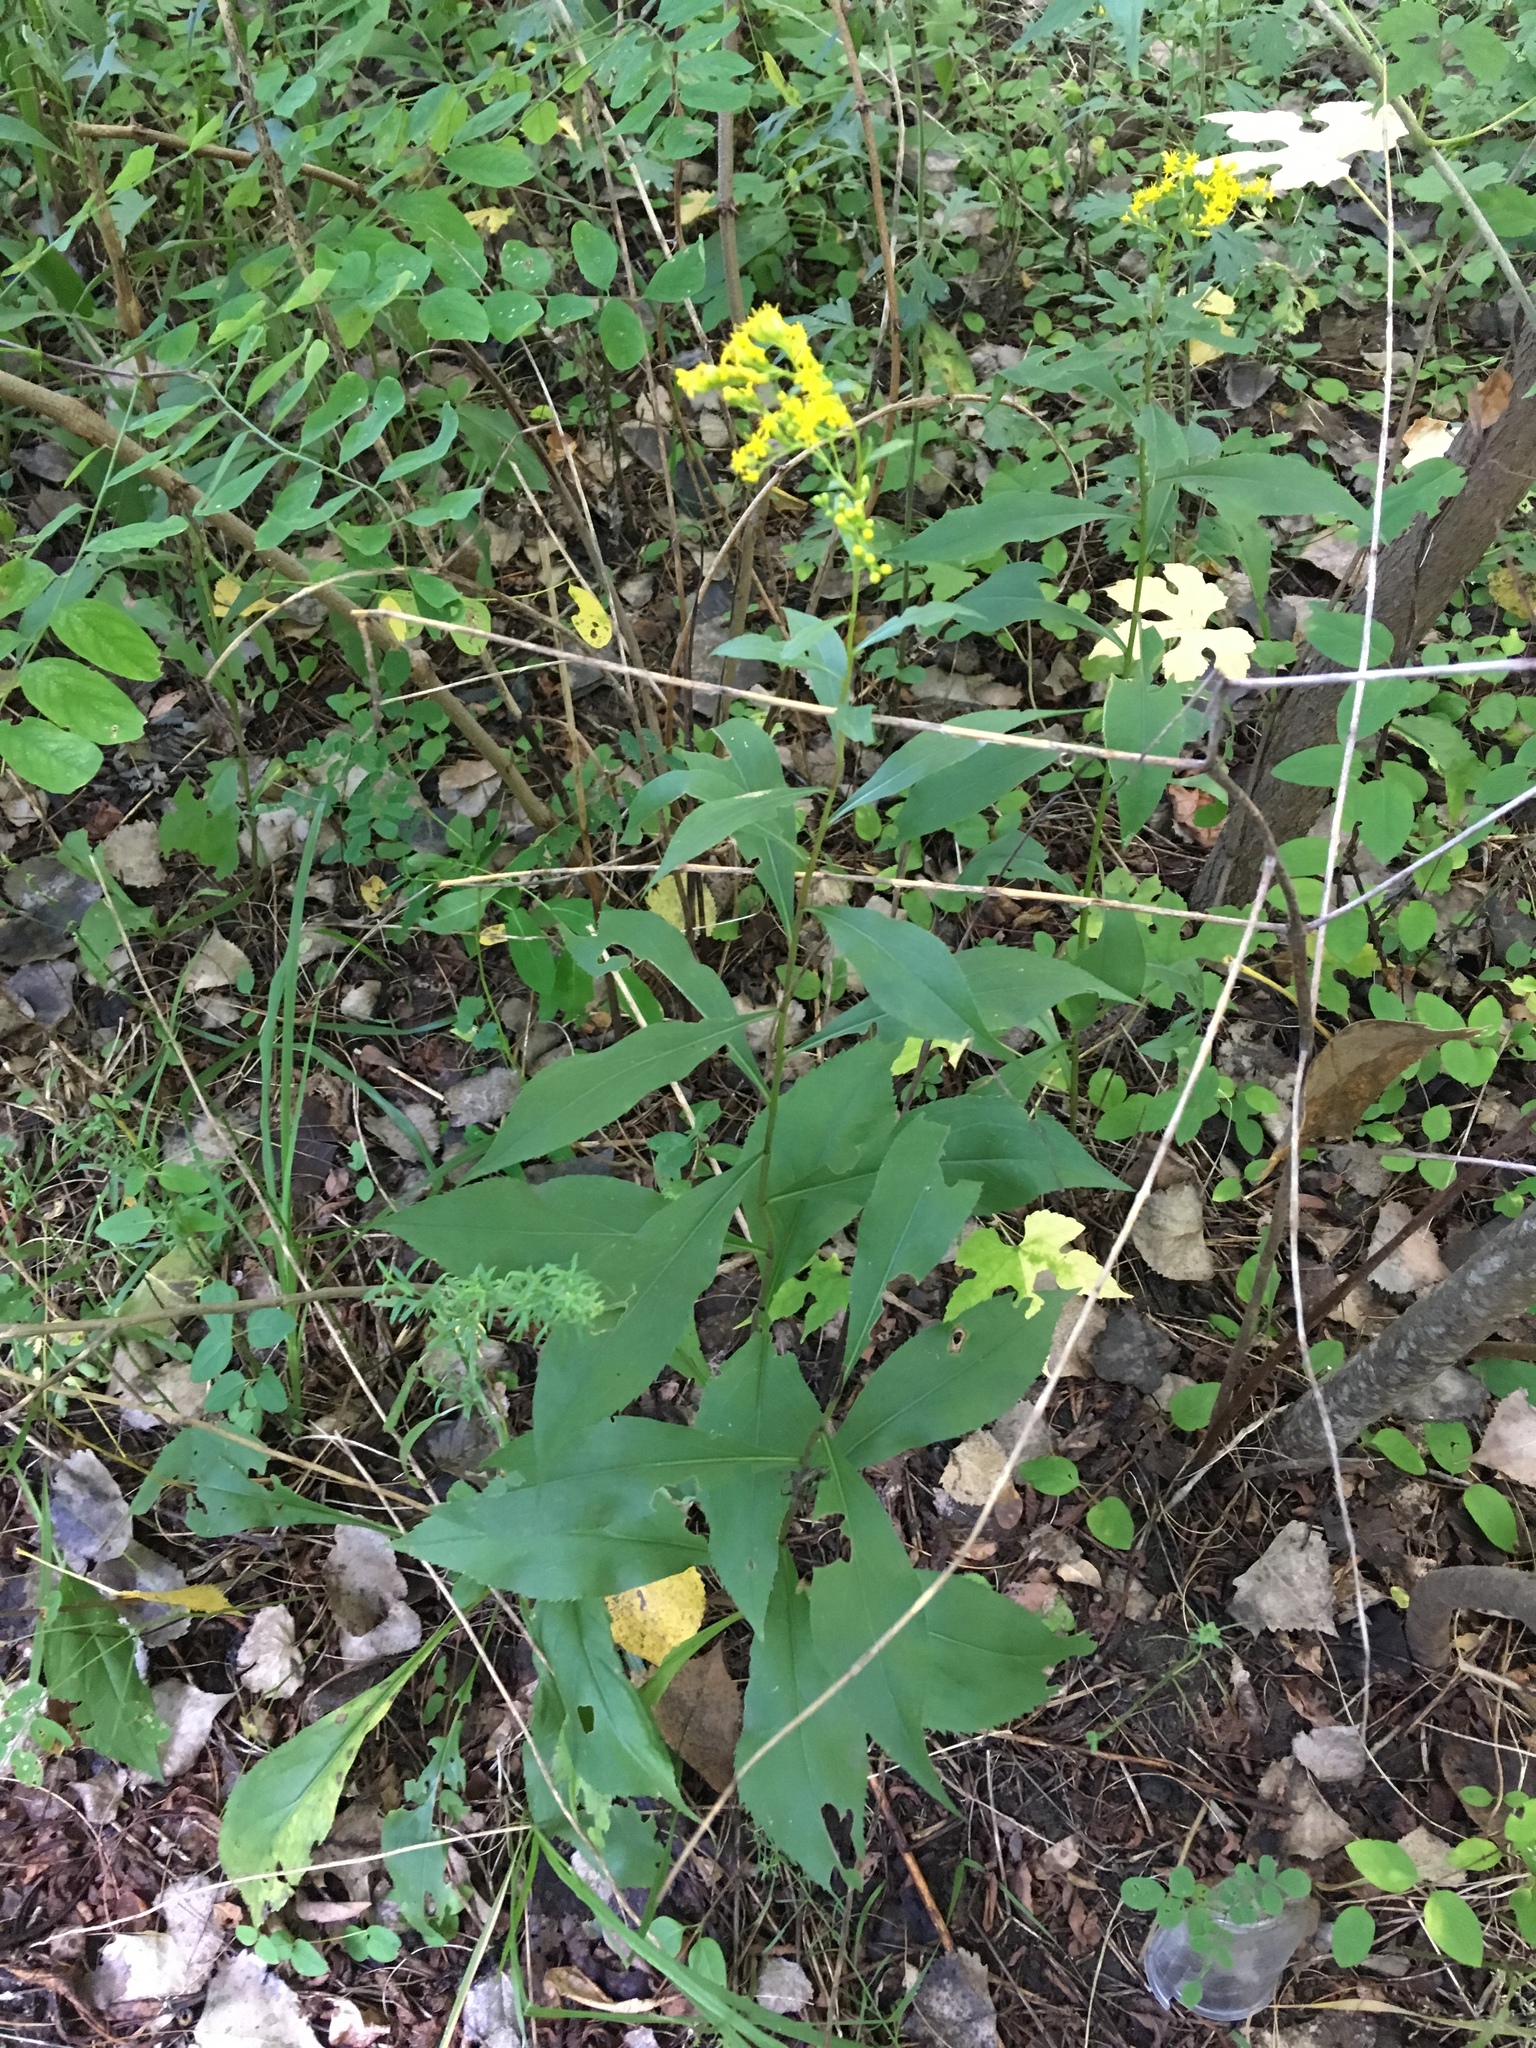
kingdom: Plantae
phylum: Tracheophyta
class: Magnoliopsida
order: Asterales
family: Asteraceae
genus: Solidago
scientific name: Solidago speciosa
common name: Showy goldenrod
